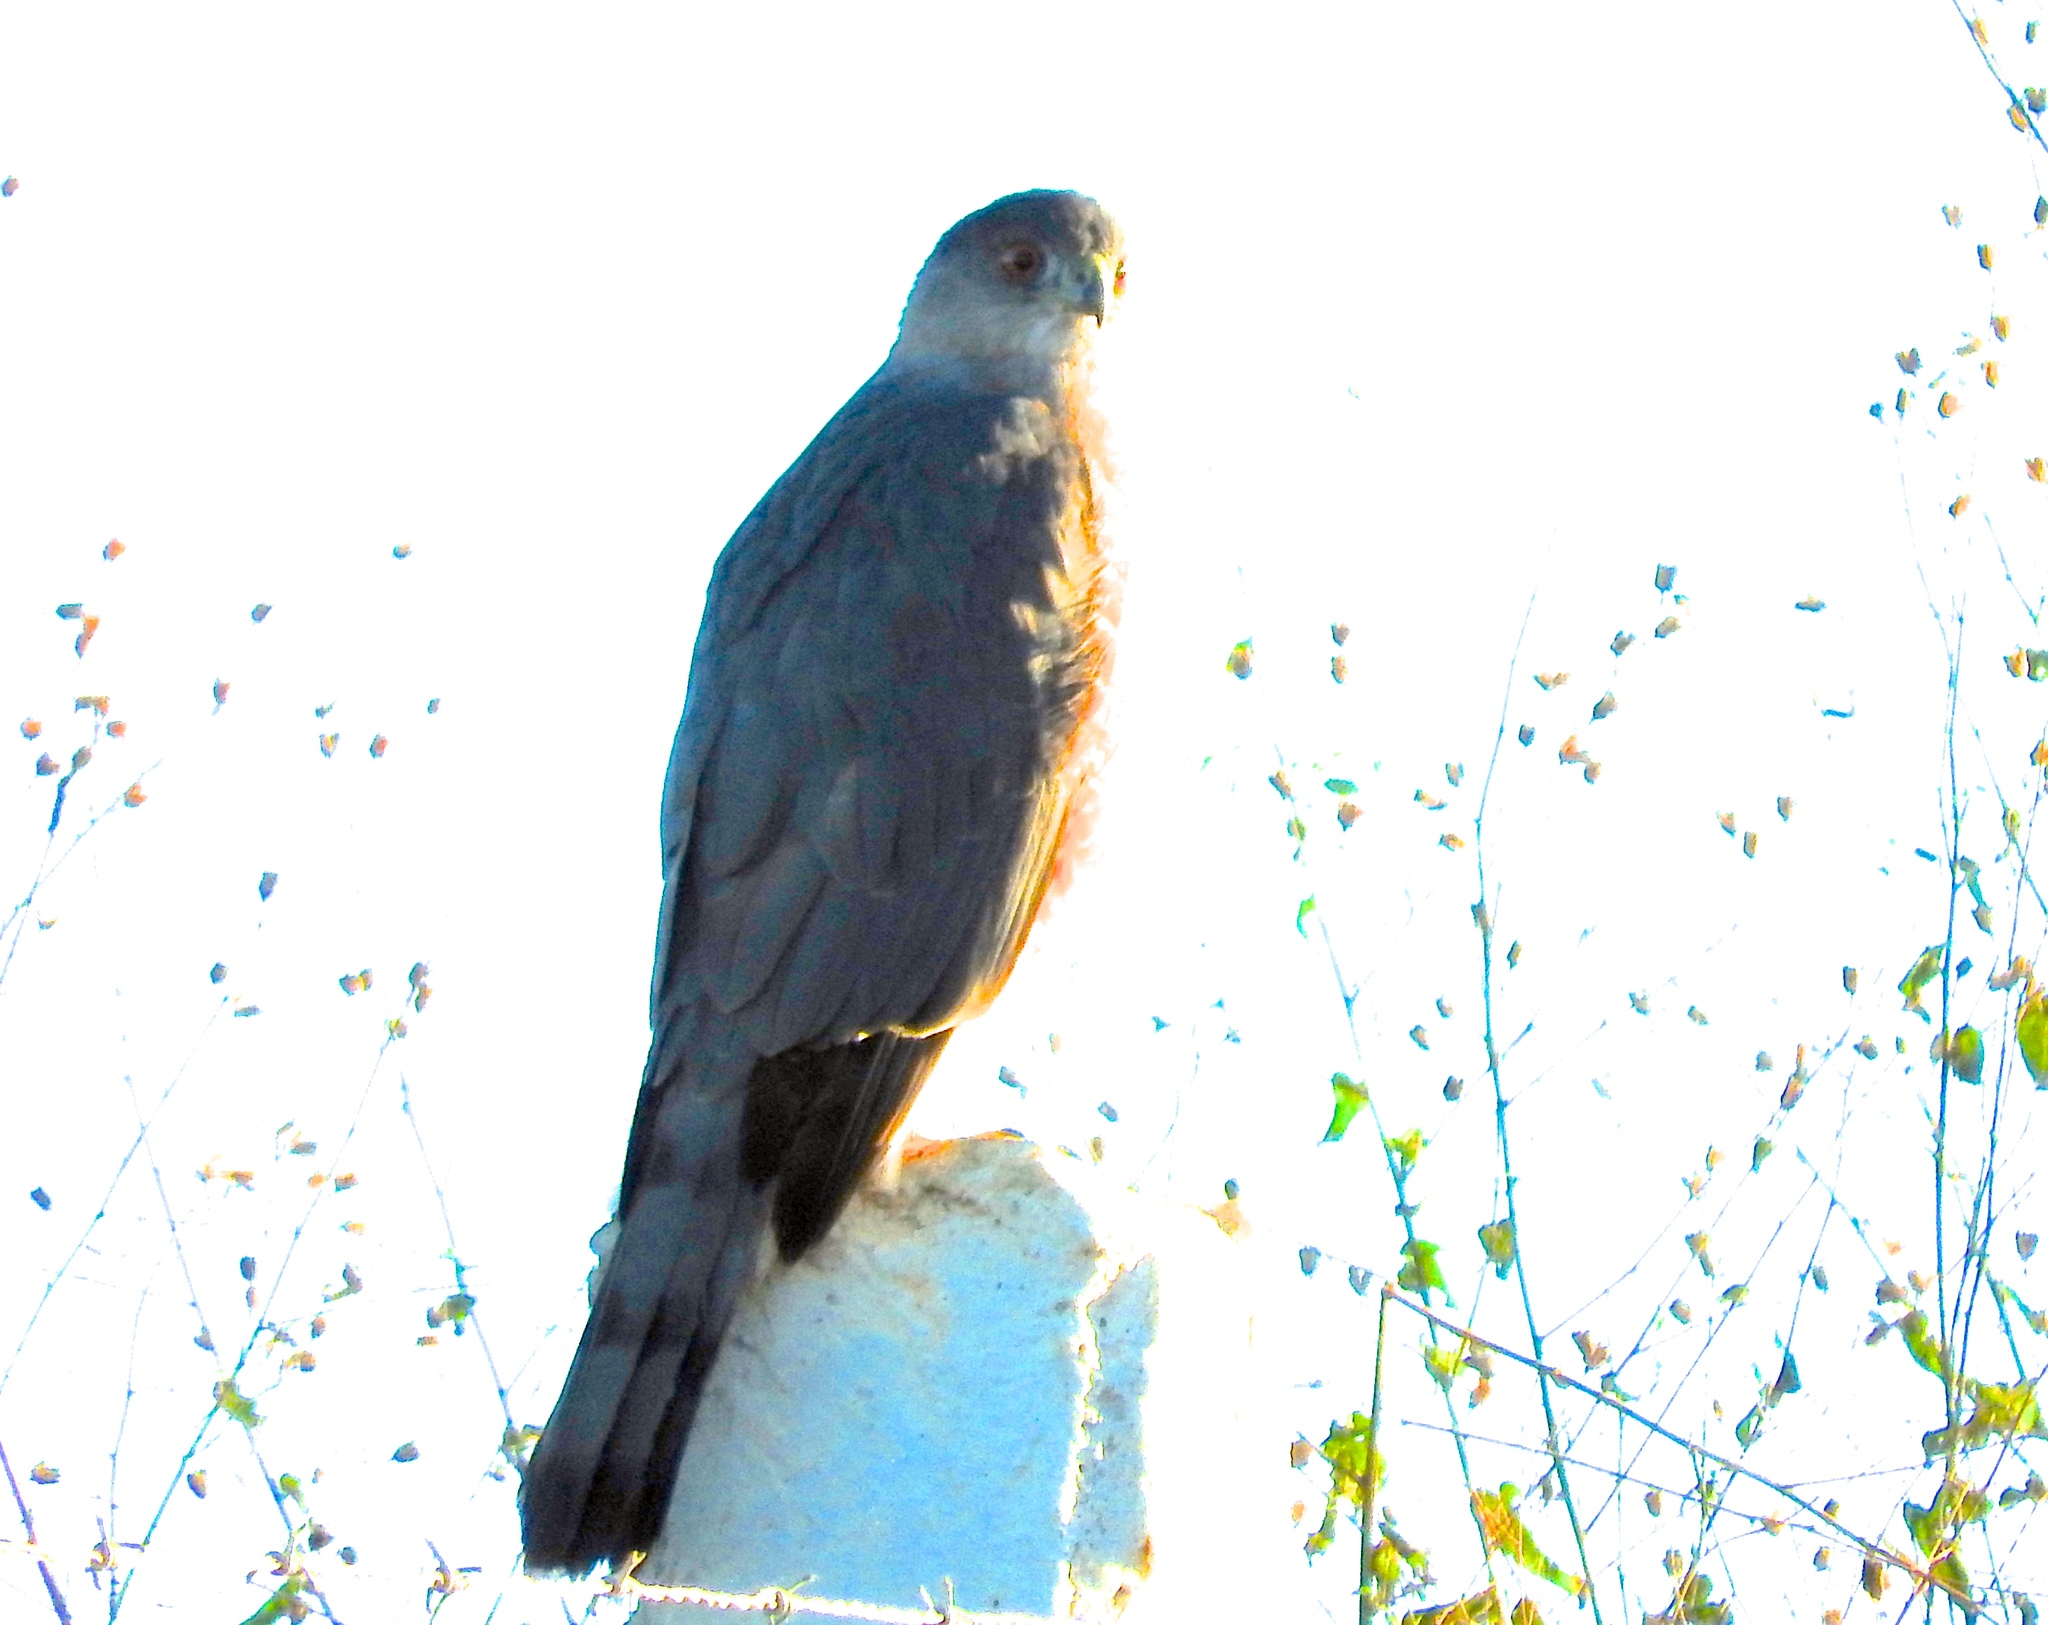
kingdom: Animalia
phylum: Chordata
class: Aves
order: Accipitriformes
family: Accipitridae
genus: Accipiter
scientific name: Accipiter cooperii
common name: Cooper's hawk
